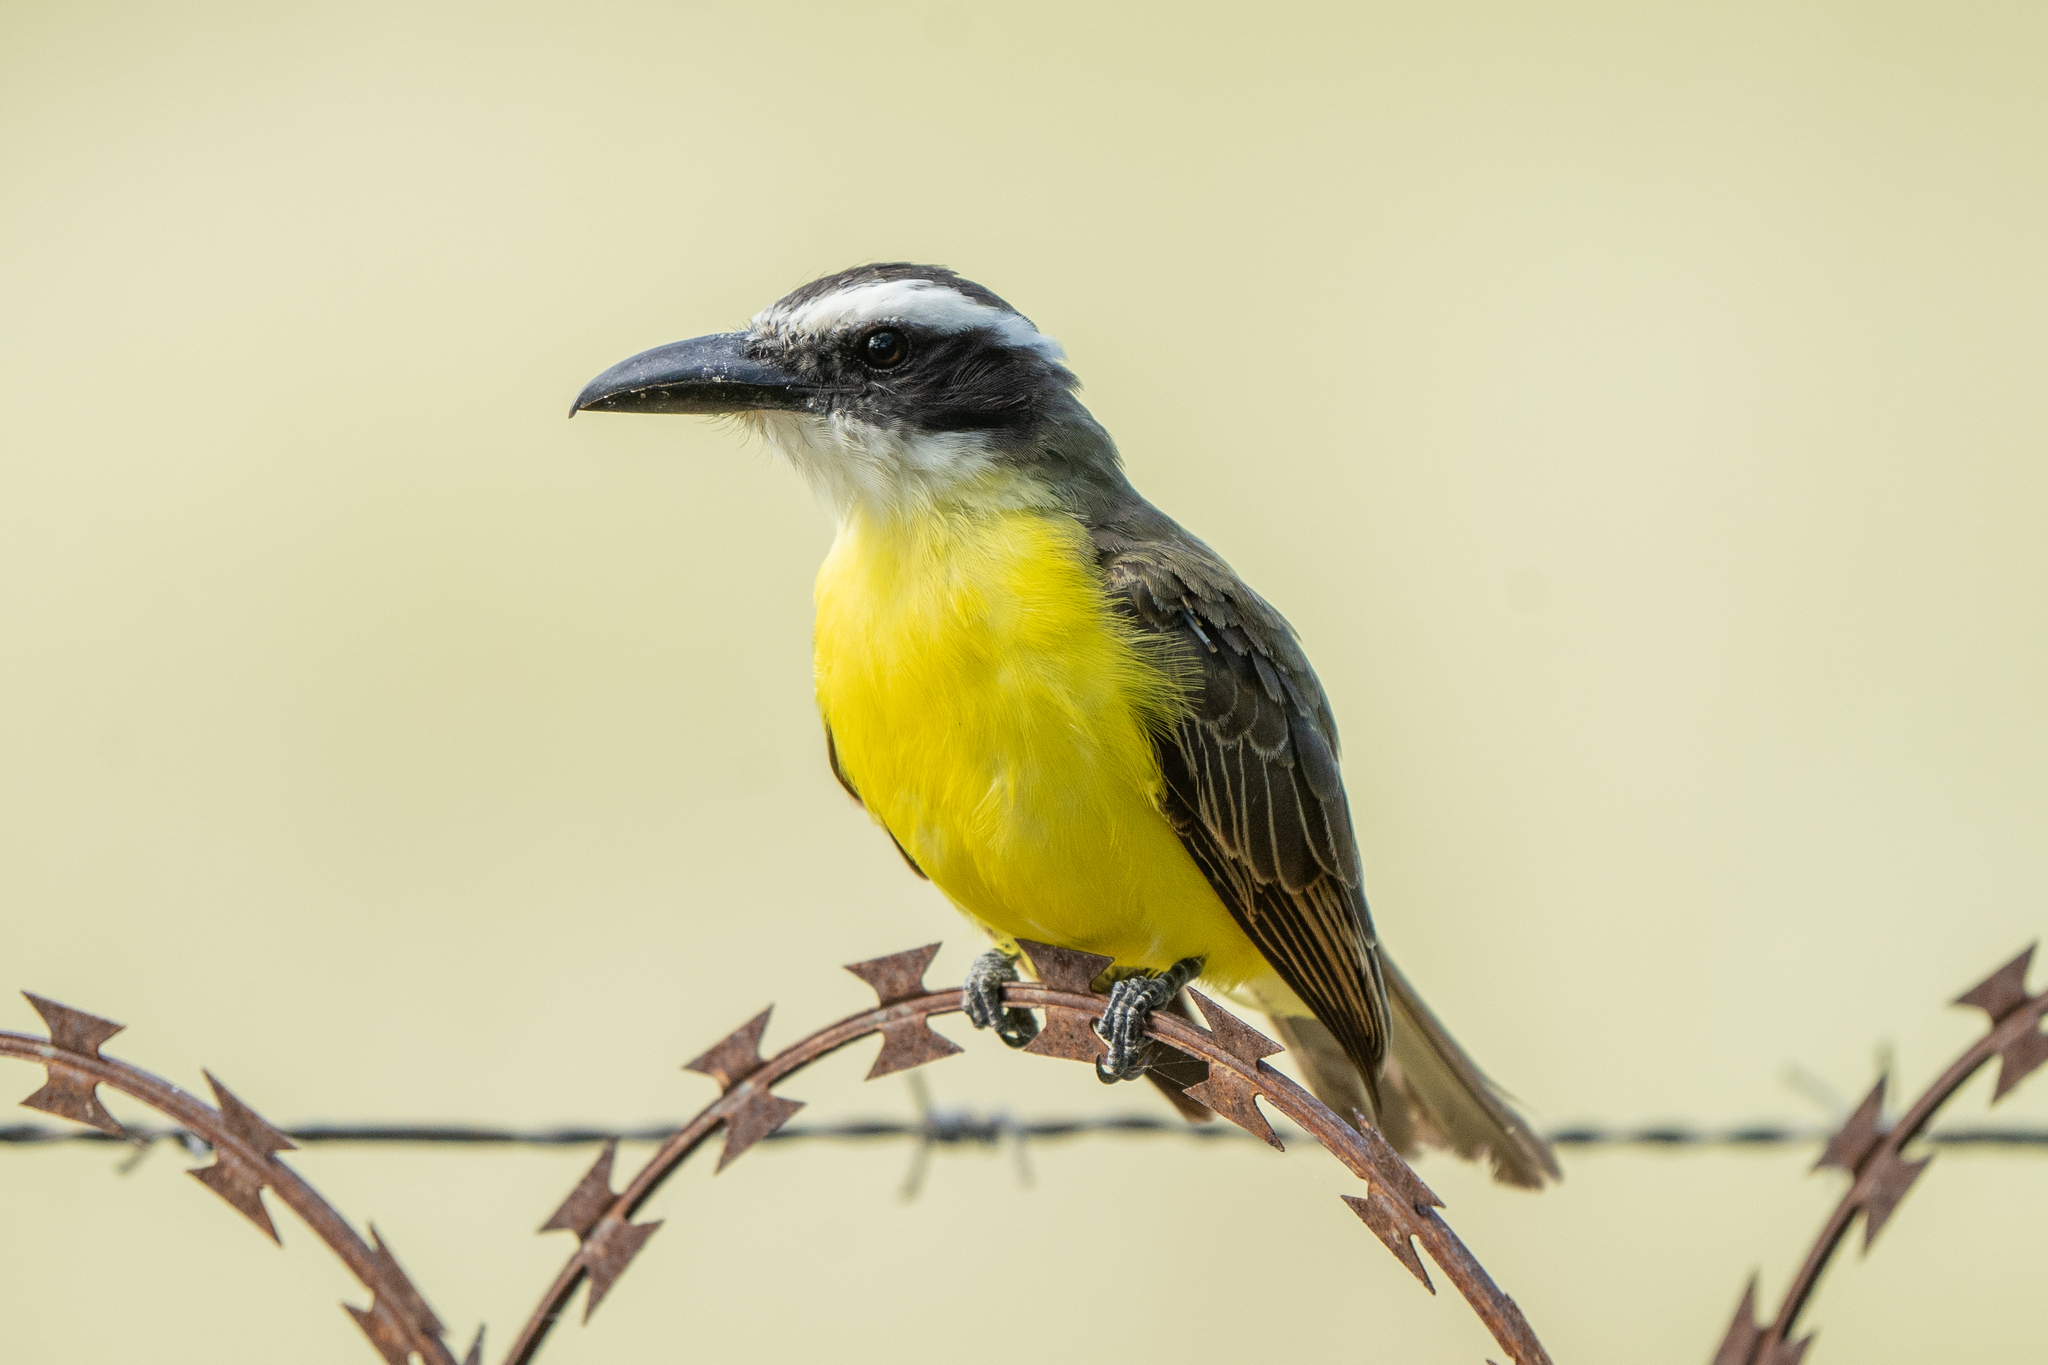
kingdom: Animalia
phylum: Chordata
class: Aves
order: Passeriformes
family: Tyrannidae
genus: Megarynchus
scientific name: Megarynchus pitangua
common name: Boat-billed flycatcher
